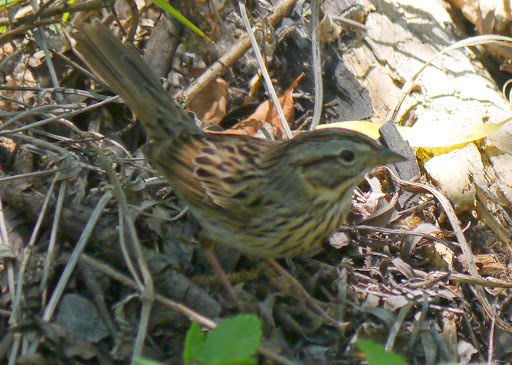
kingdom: Animalia
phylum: Chordata
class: Aves
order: Passeriformes
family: Passerellidae
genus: Melospiza
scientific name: Melospiza lincolnii
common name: Lincoln's sparrow
